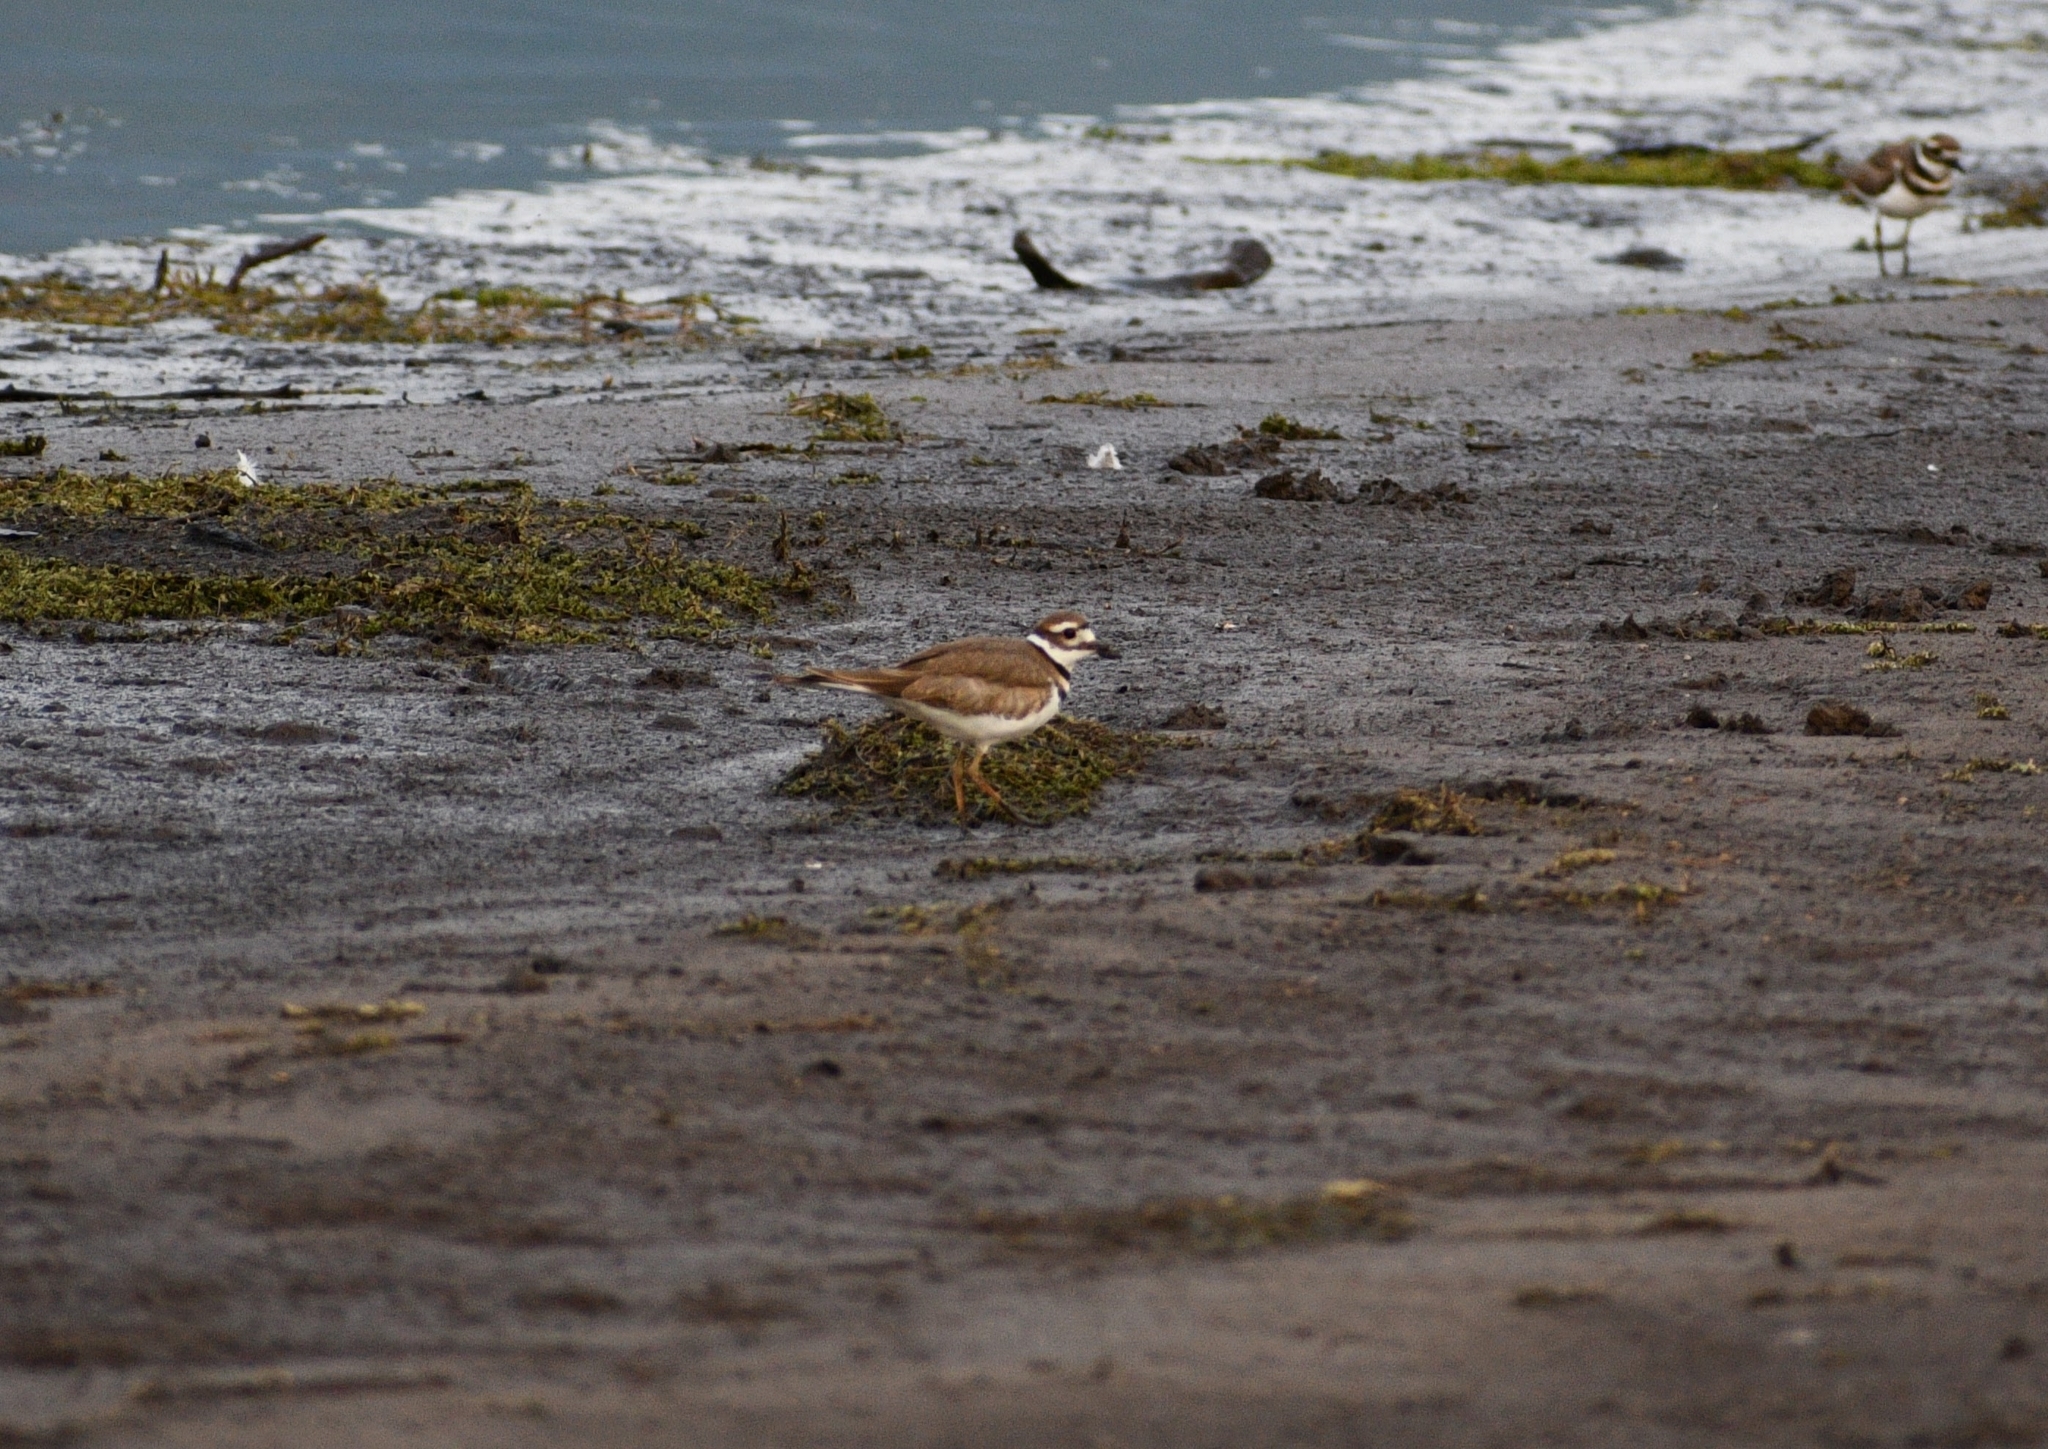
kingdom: Animalia
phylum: Chordata
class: Aves
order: Charadriiformes
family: Charadriidae
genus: Charadrius
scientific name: Charadrius vociferus
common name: Killdeer
